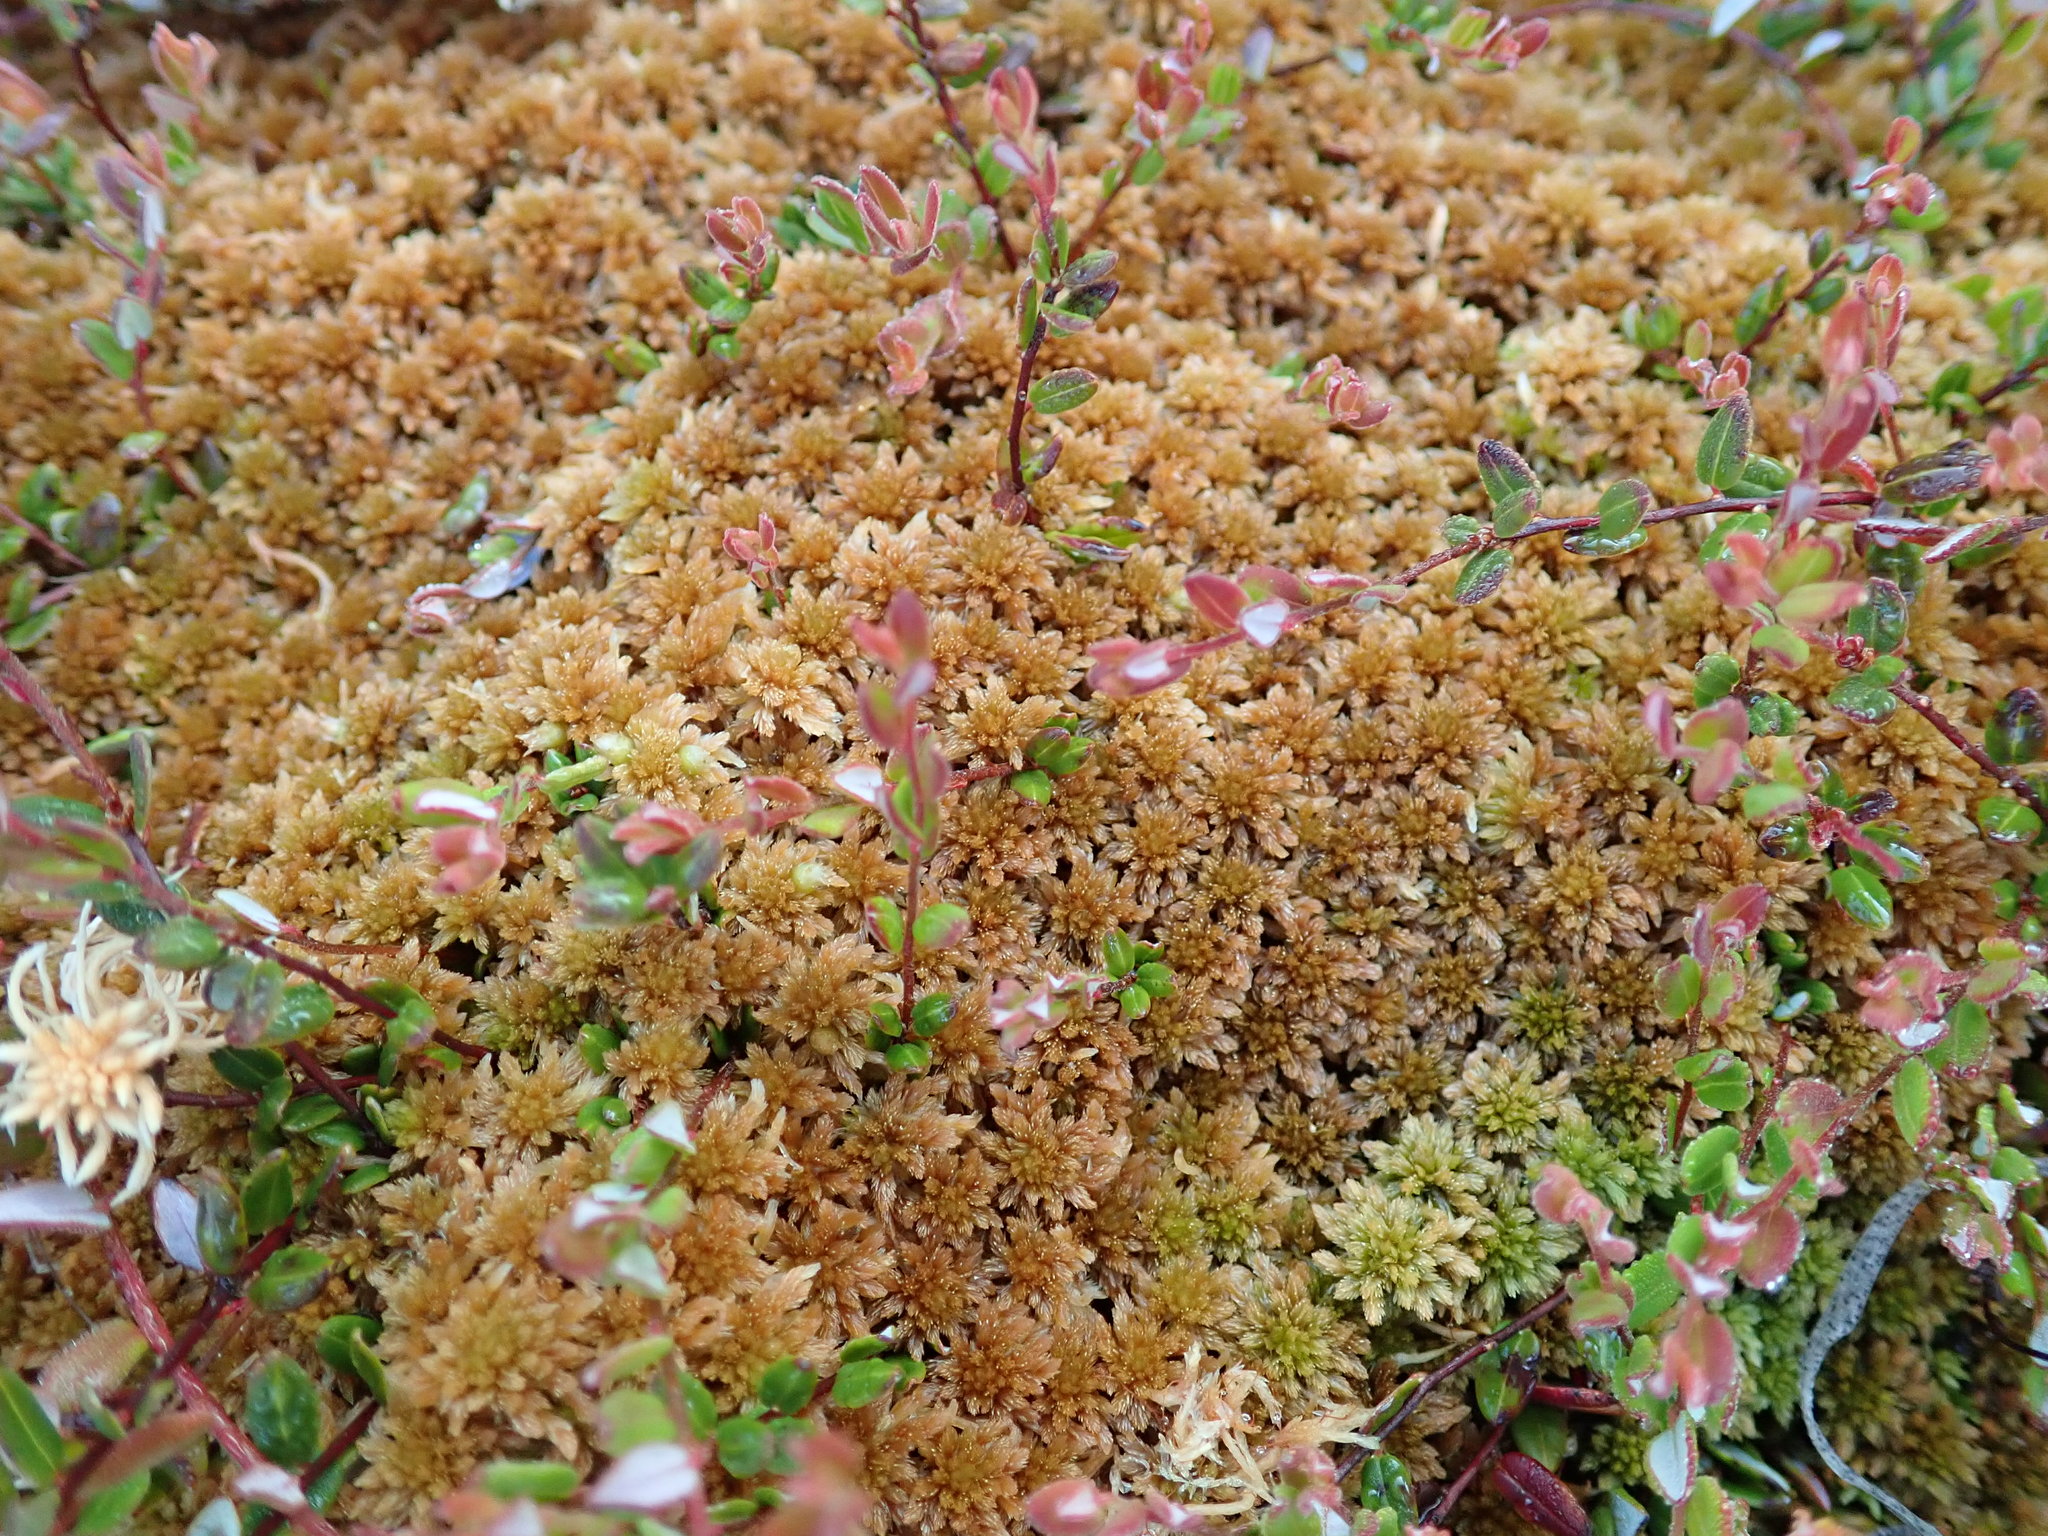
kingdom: Plantae
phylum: Bryophyta
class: Sphagnopsida
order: Sphagnales
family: Sphagnaceae
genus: Sphagnum
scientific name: Sphagnum fuscum
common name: Brown peat moss
